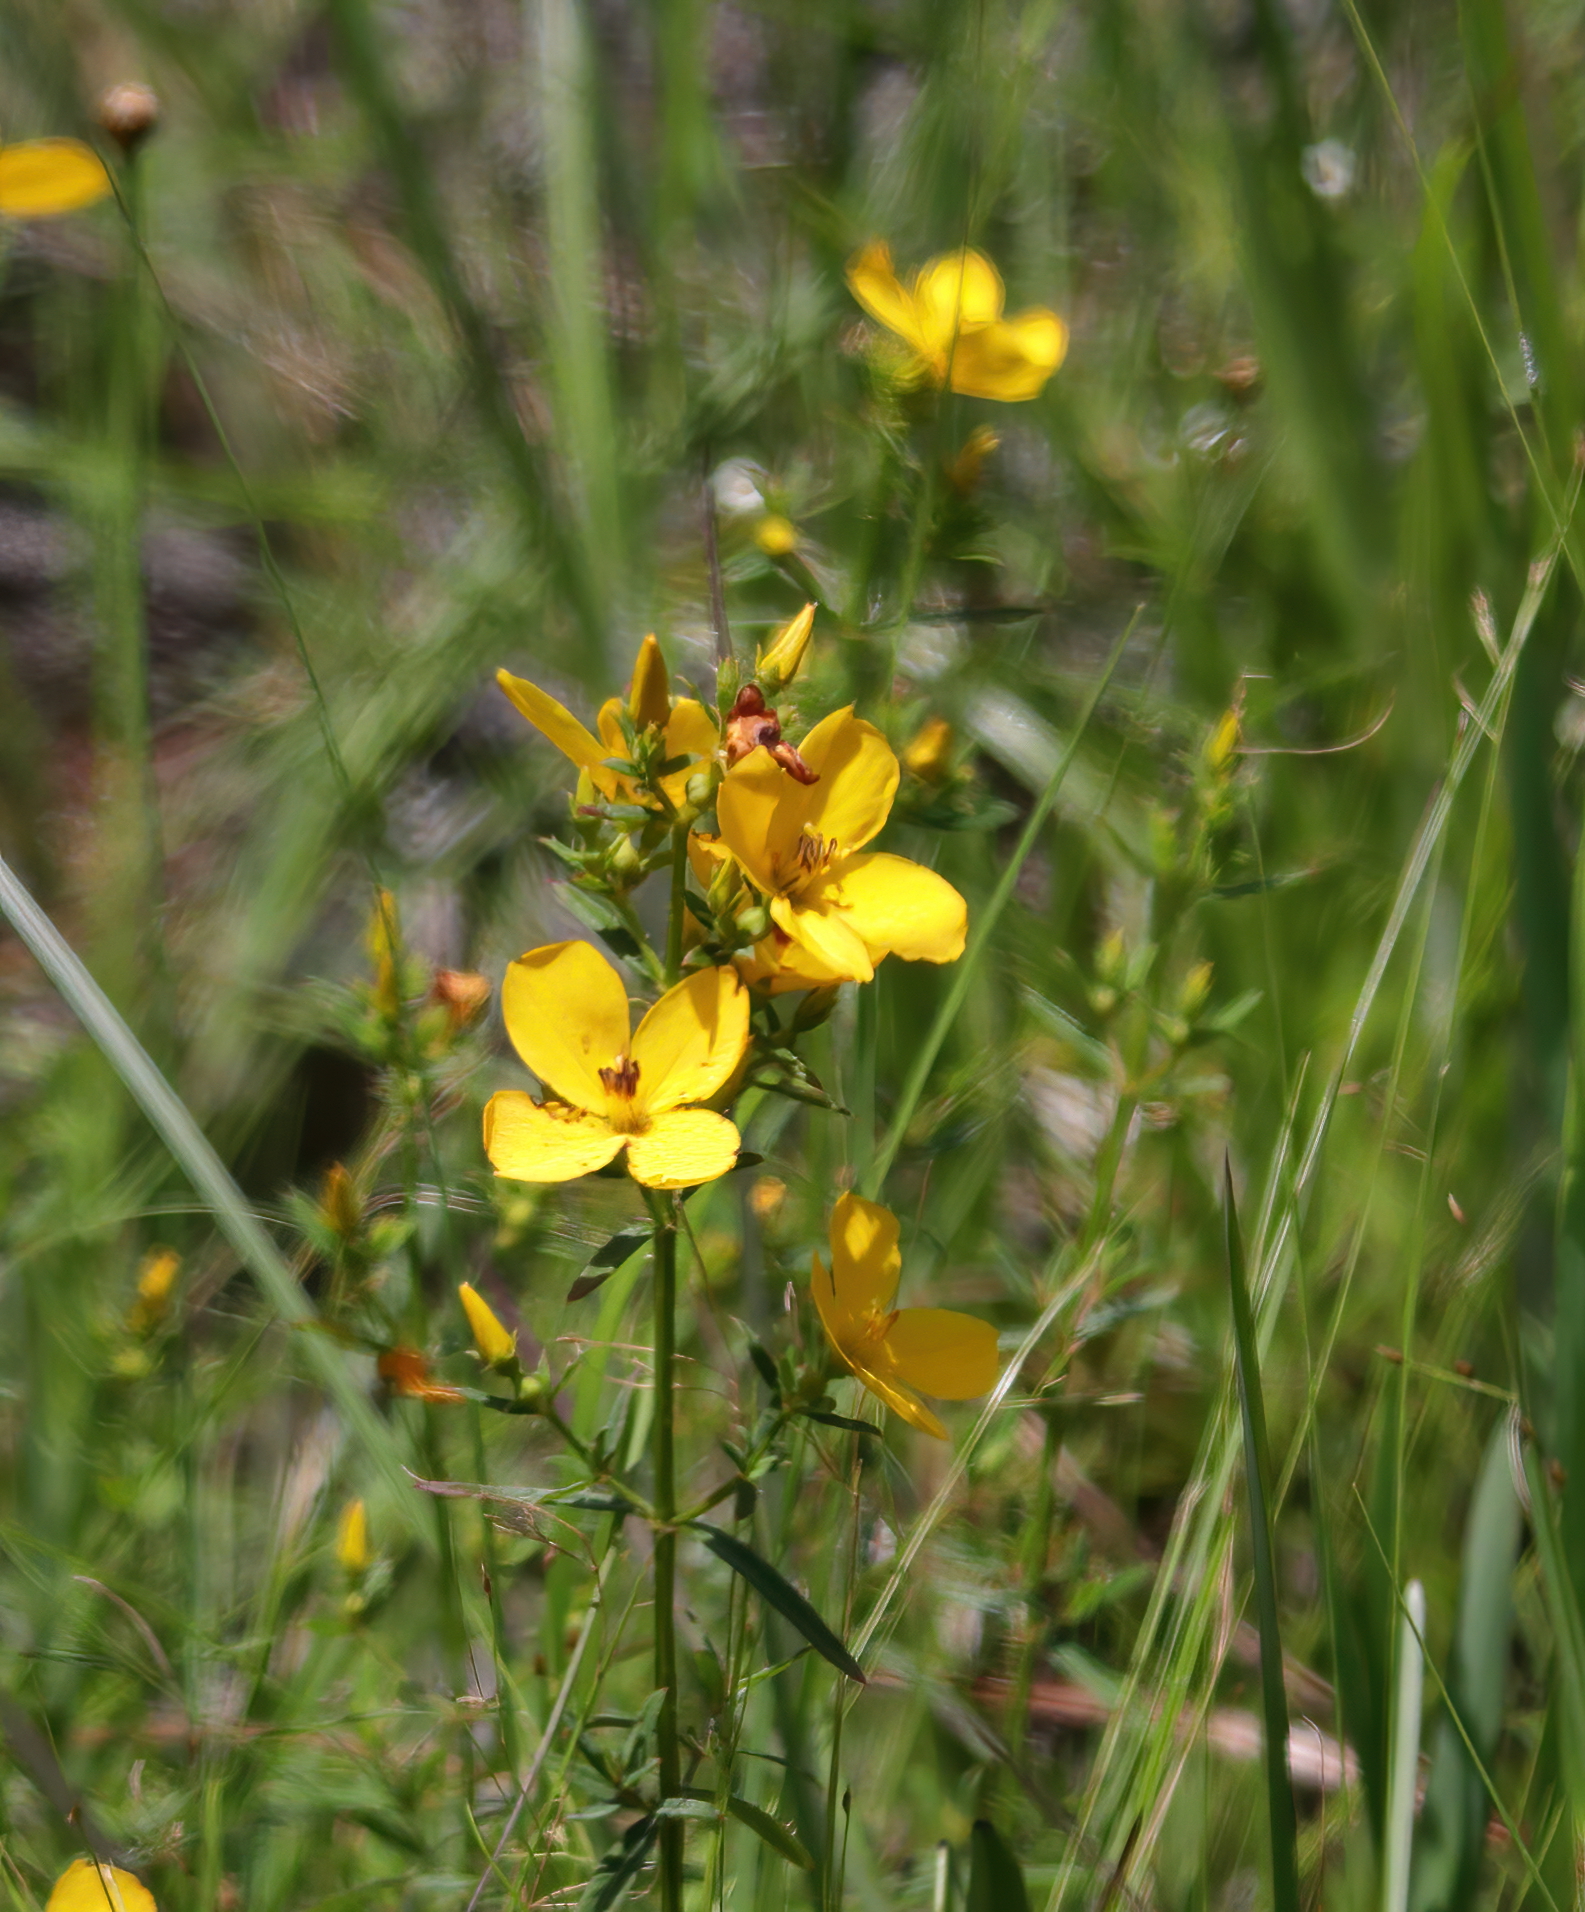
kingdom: Plantae
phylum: Tracheophyta
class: Magnoliopsida
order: Myrtales
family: Melastomataceae
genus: Rhexia
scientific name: Rhexia lutea
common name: Golden meadow-beauty
